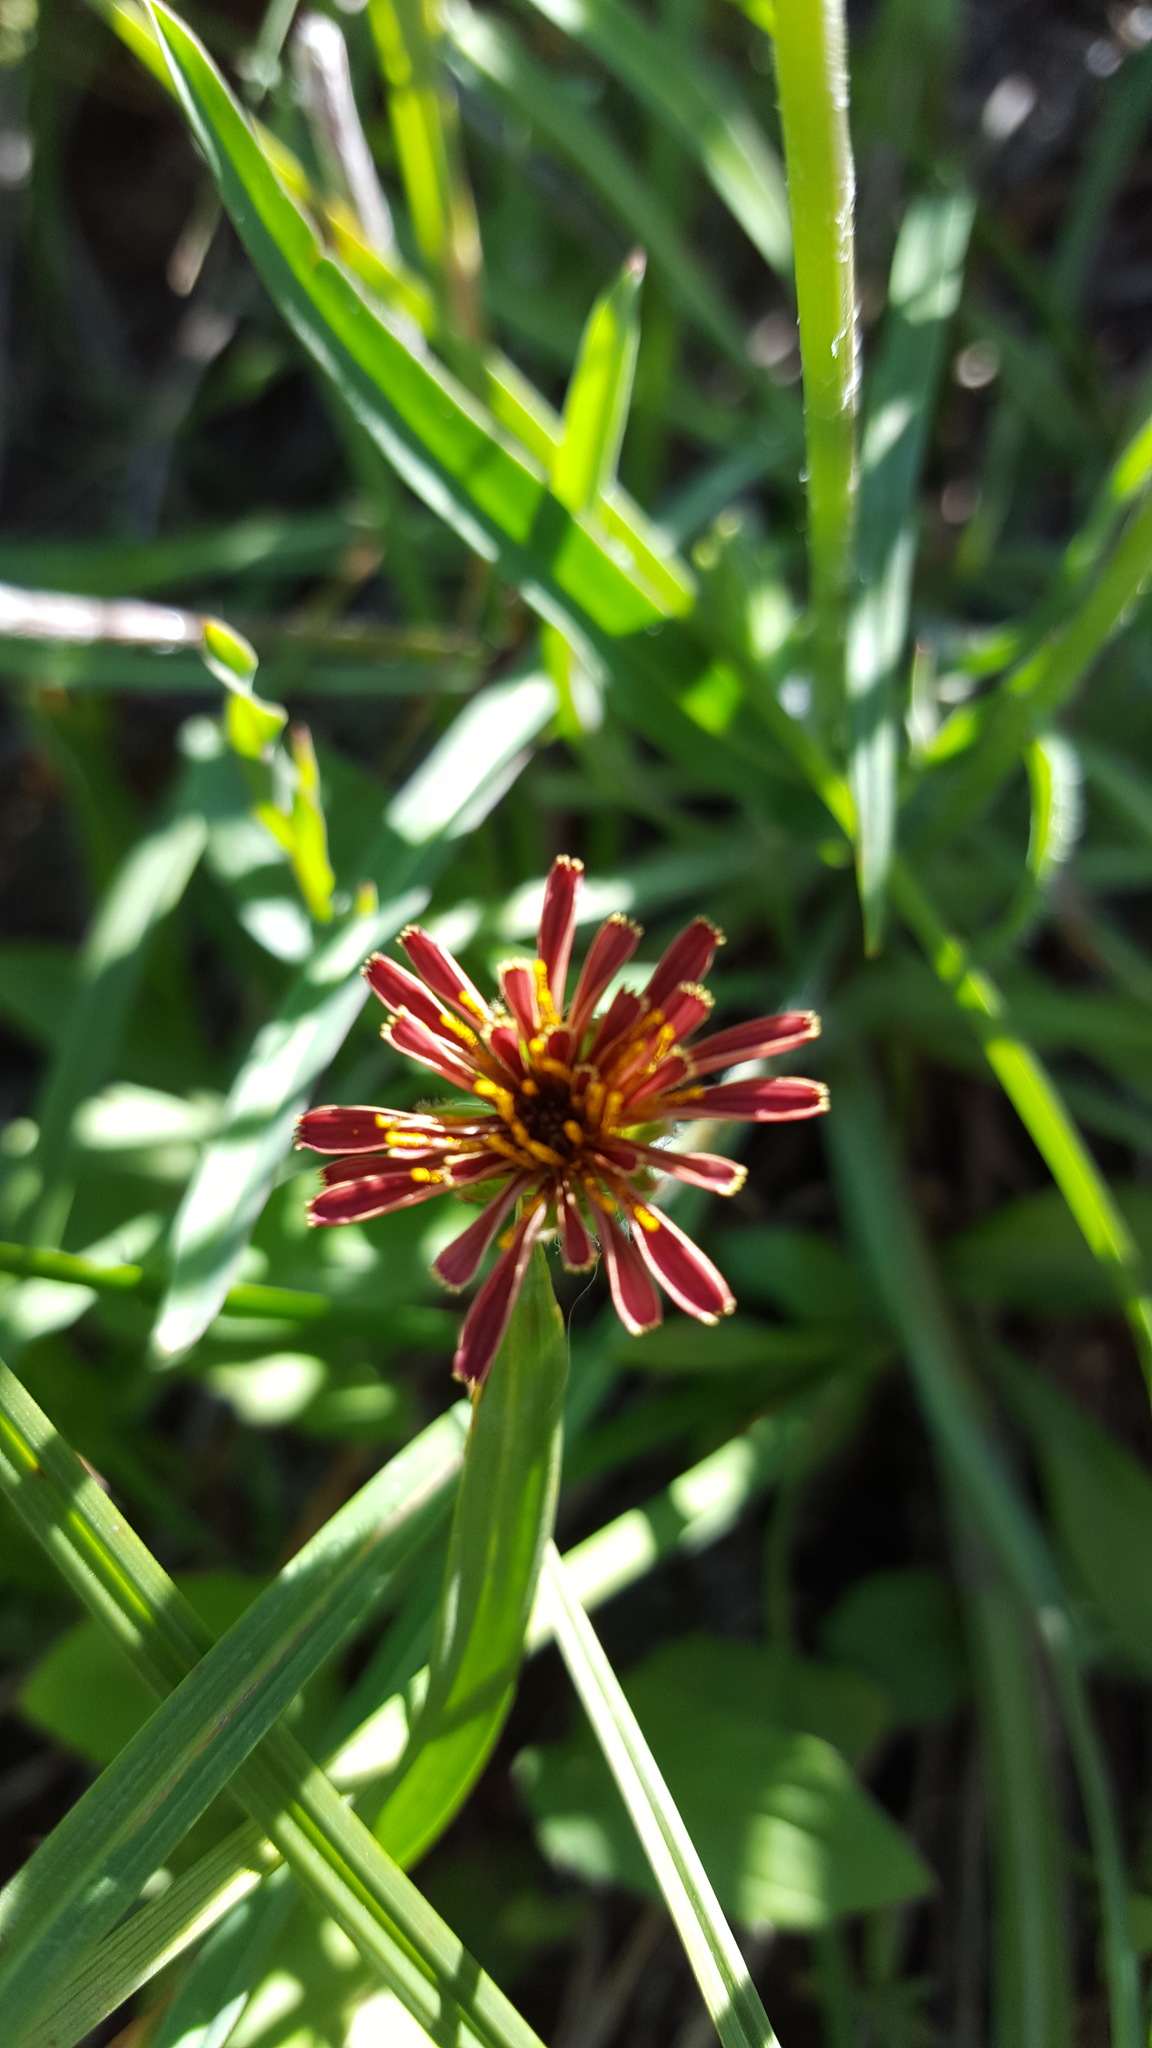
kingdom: Plantae
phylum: Tracheophyta
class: Magnoliopsida
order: Asterales
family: Asteraceae
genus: Agoseris
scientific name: Agoseris aurantiaca
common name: Mountain agoseris
